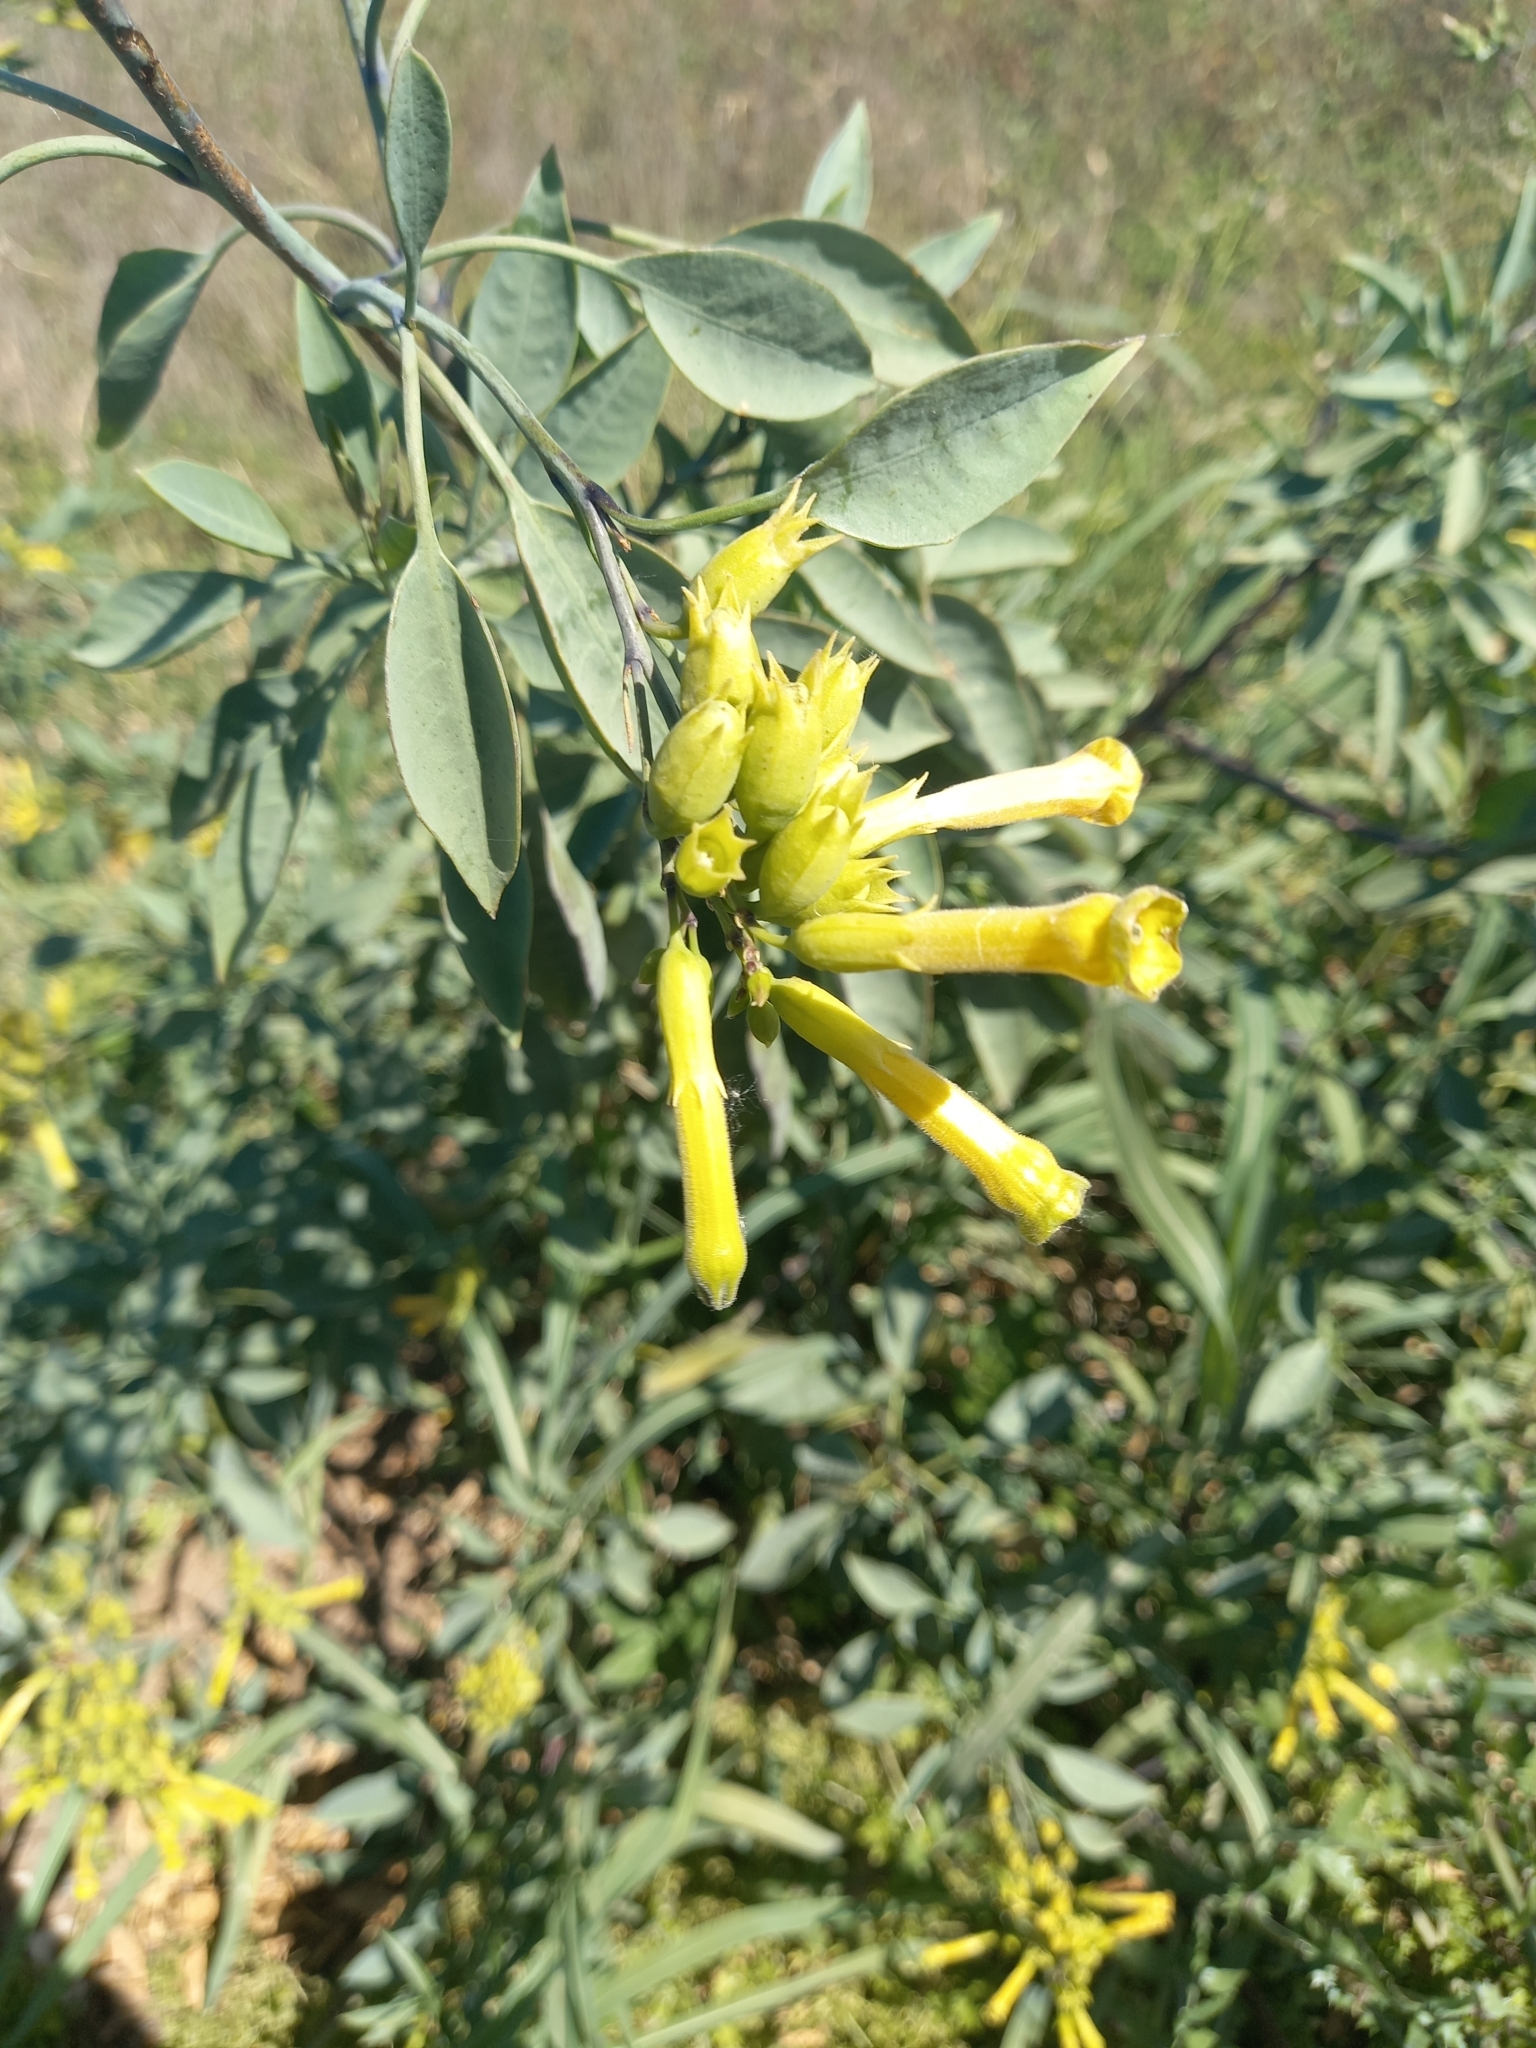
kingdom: Plantae
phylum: Tracheophyta
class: Magnoliopsida
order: Solanales
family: Solanaceae
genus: Nicotiana
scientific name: Nicotiana glauca
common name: Tree tobacco
